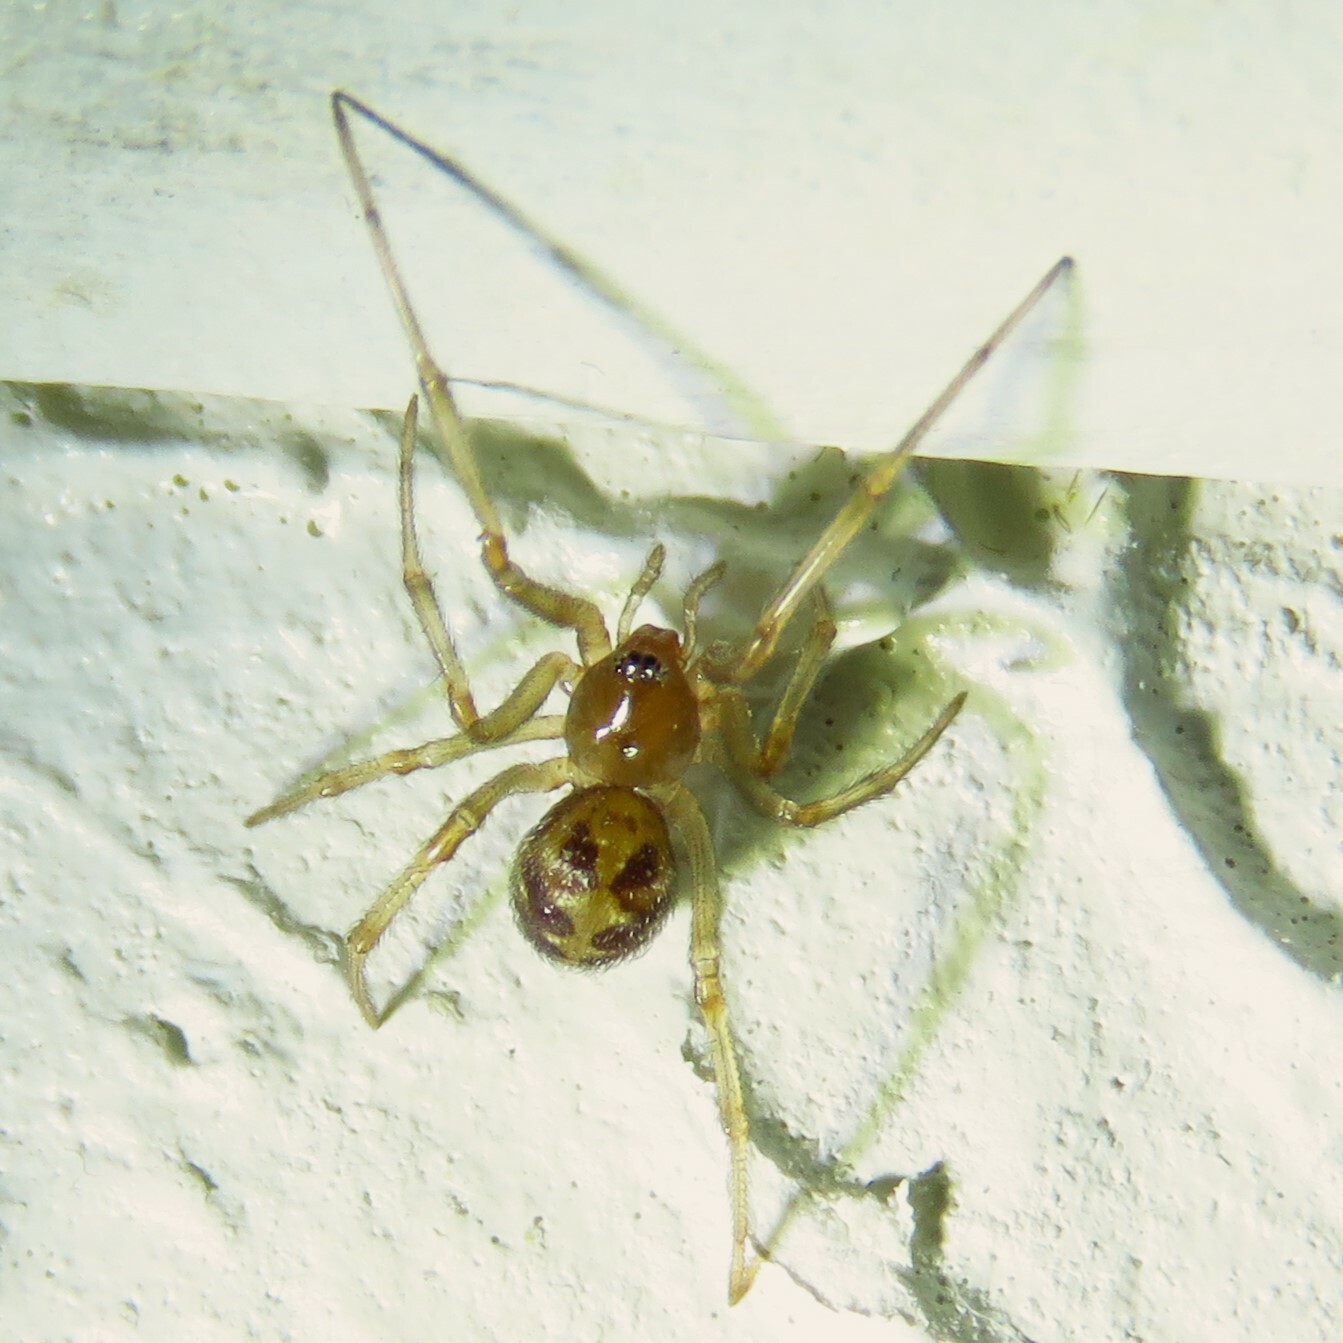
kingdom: Animalia
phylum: Arthropoda
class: Arachnida
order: Araneae
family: Theridiidae
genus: Steatoda
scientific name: Steatoda triangulosa
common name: Triangulate bud spider
